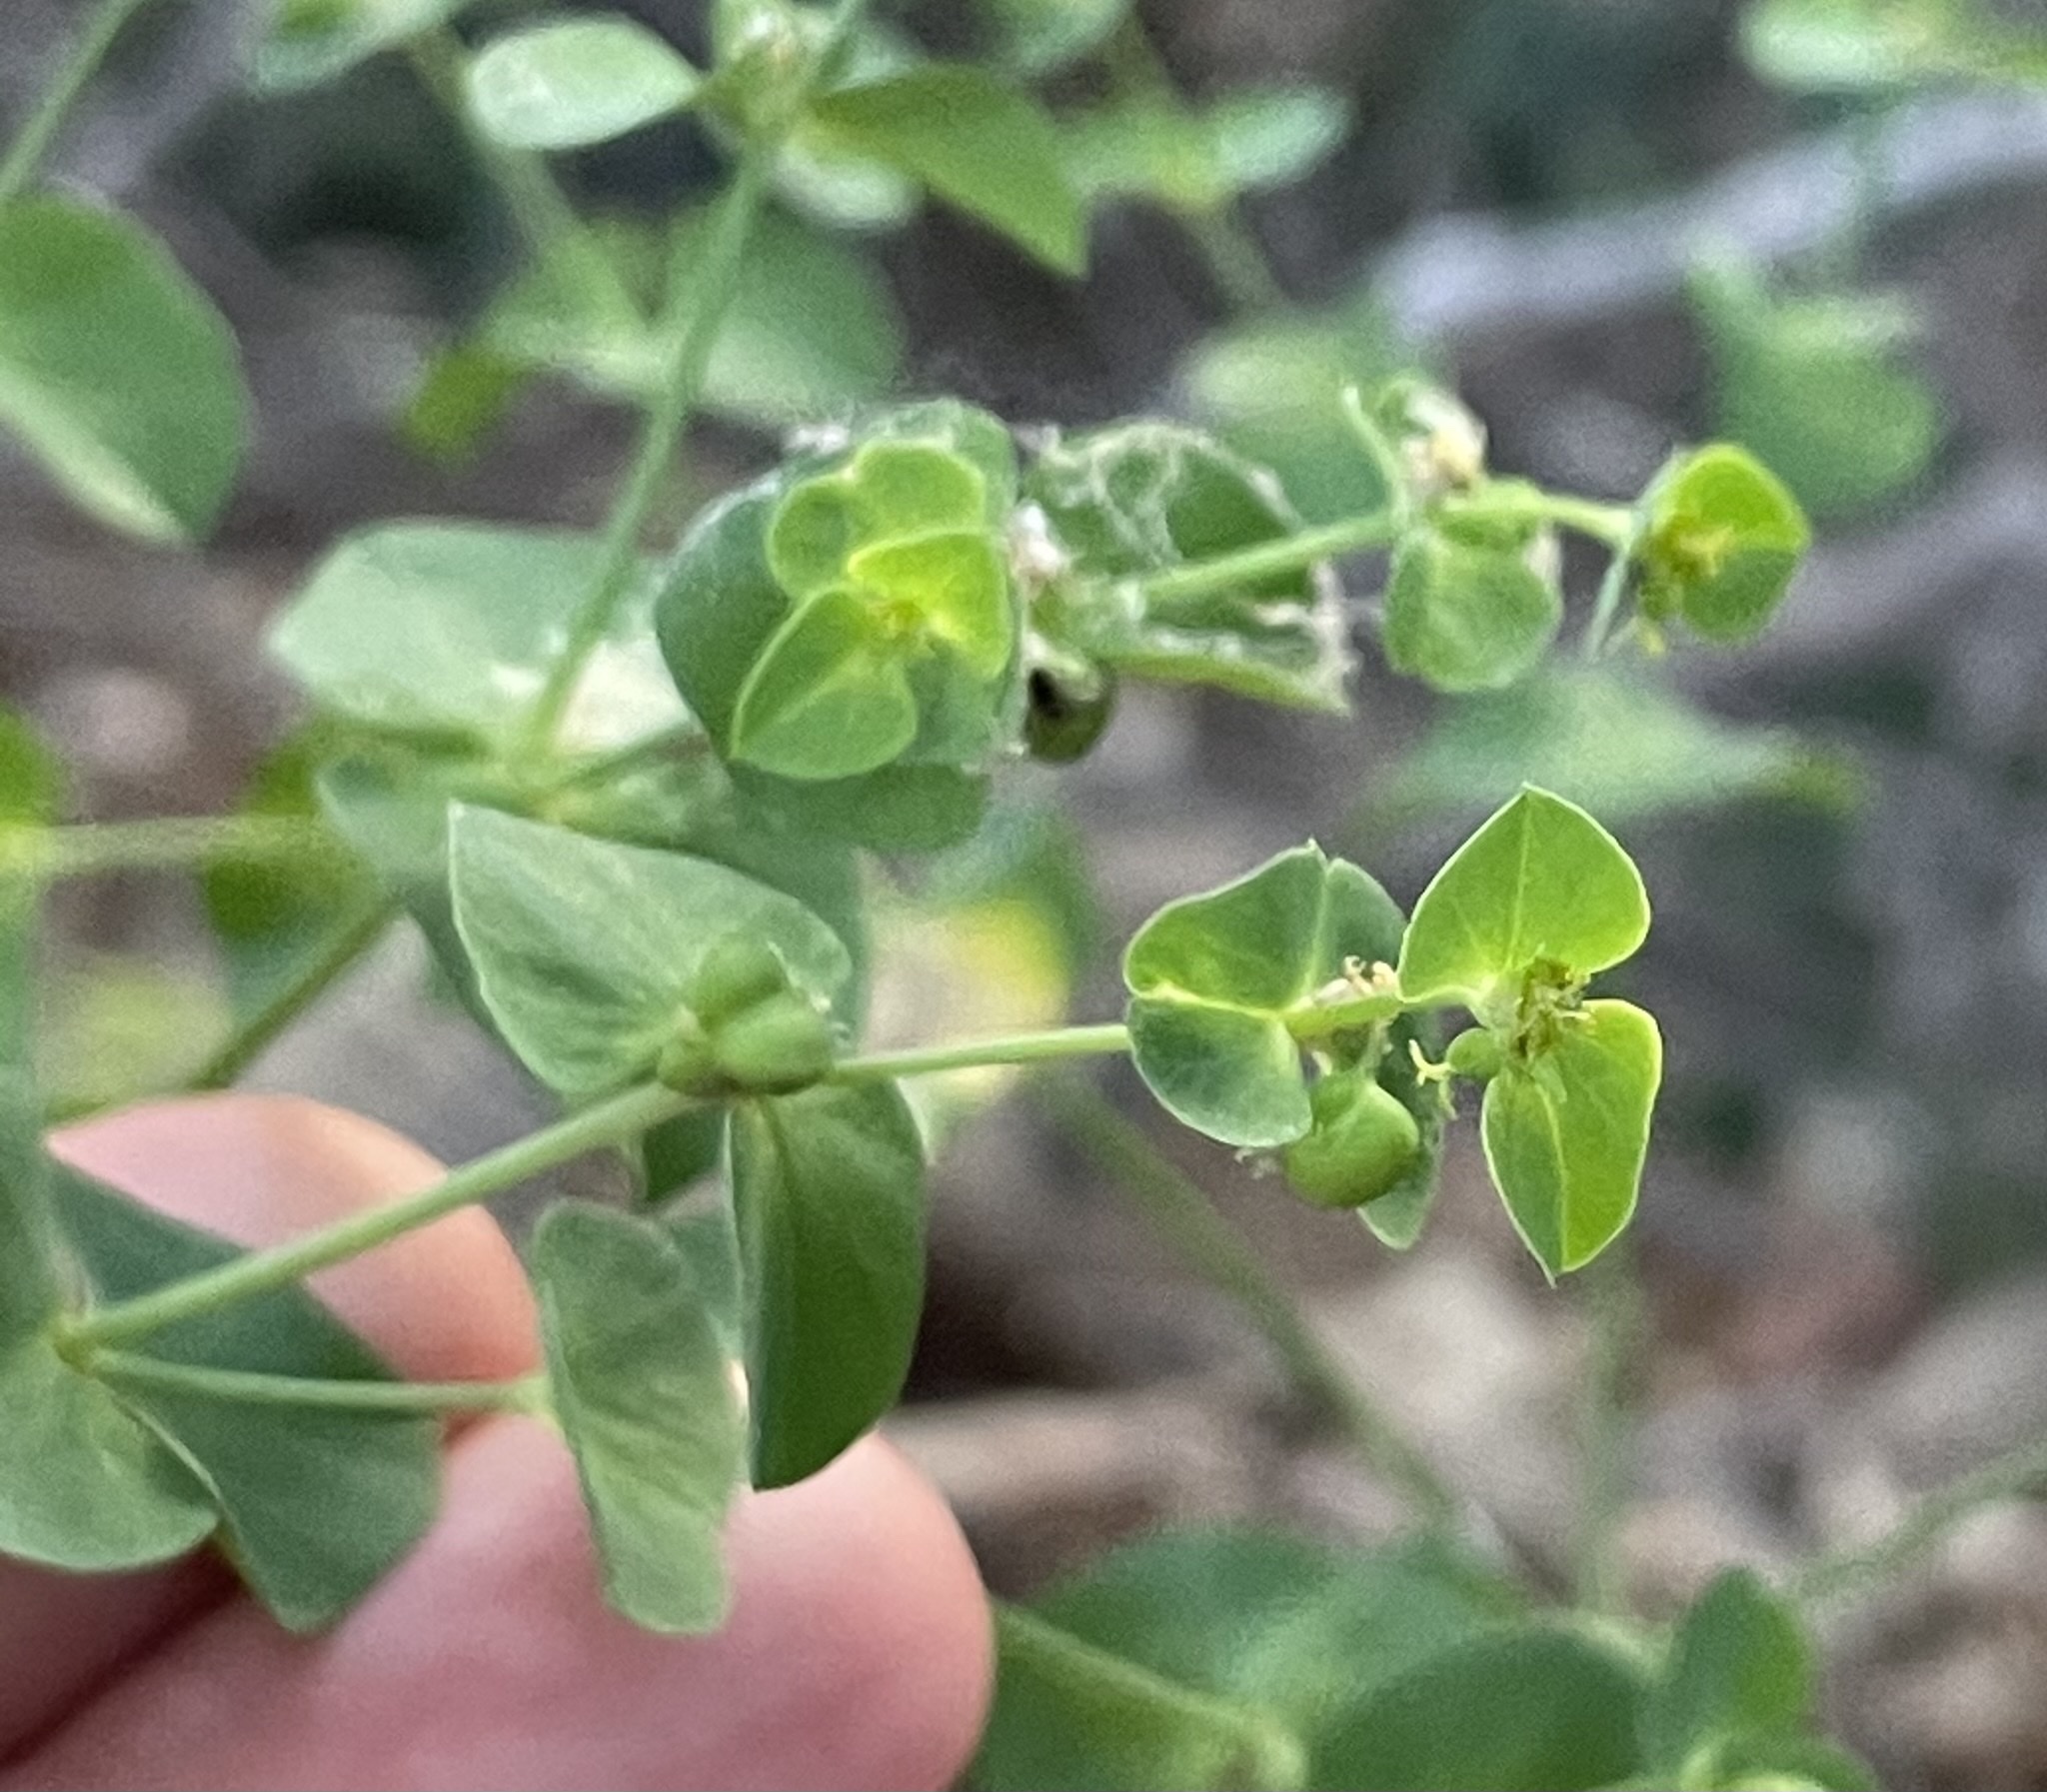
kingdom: Plantae
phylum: Tracheophyta
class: Magnoliopsida
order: Malpighiales
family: Euphorbiaceae
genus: Euphorbia
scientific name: Euphorbia terracina
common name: Geraldton carnation weed
